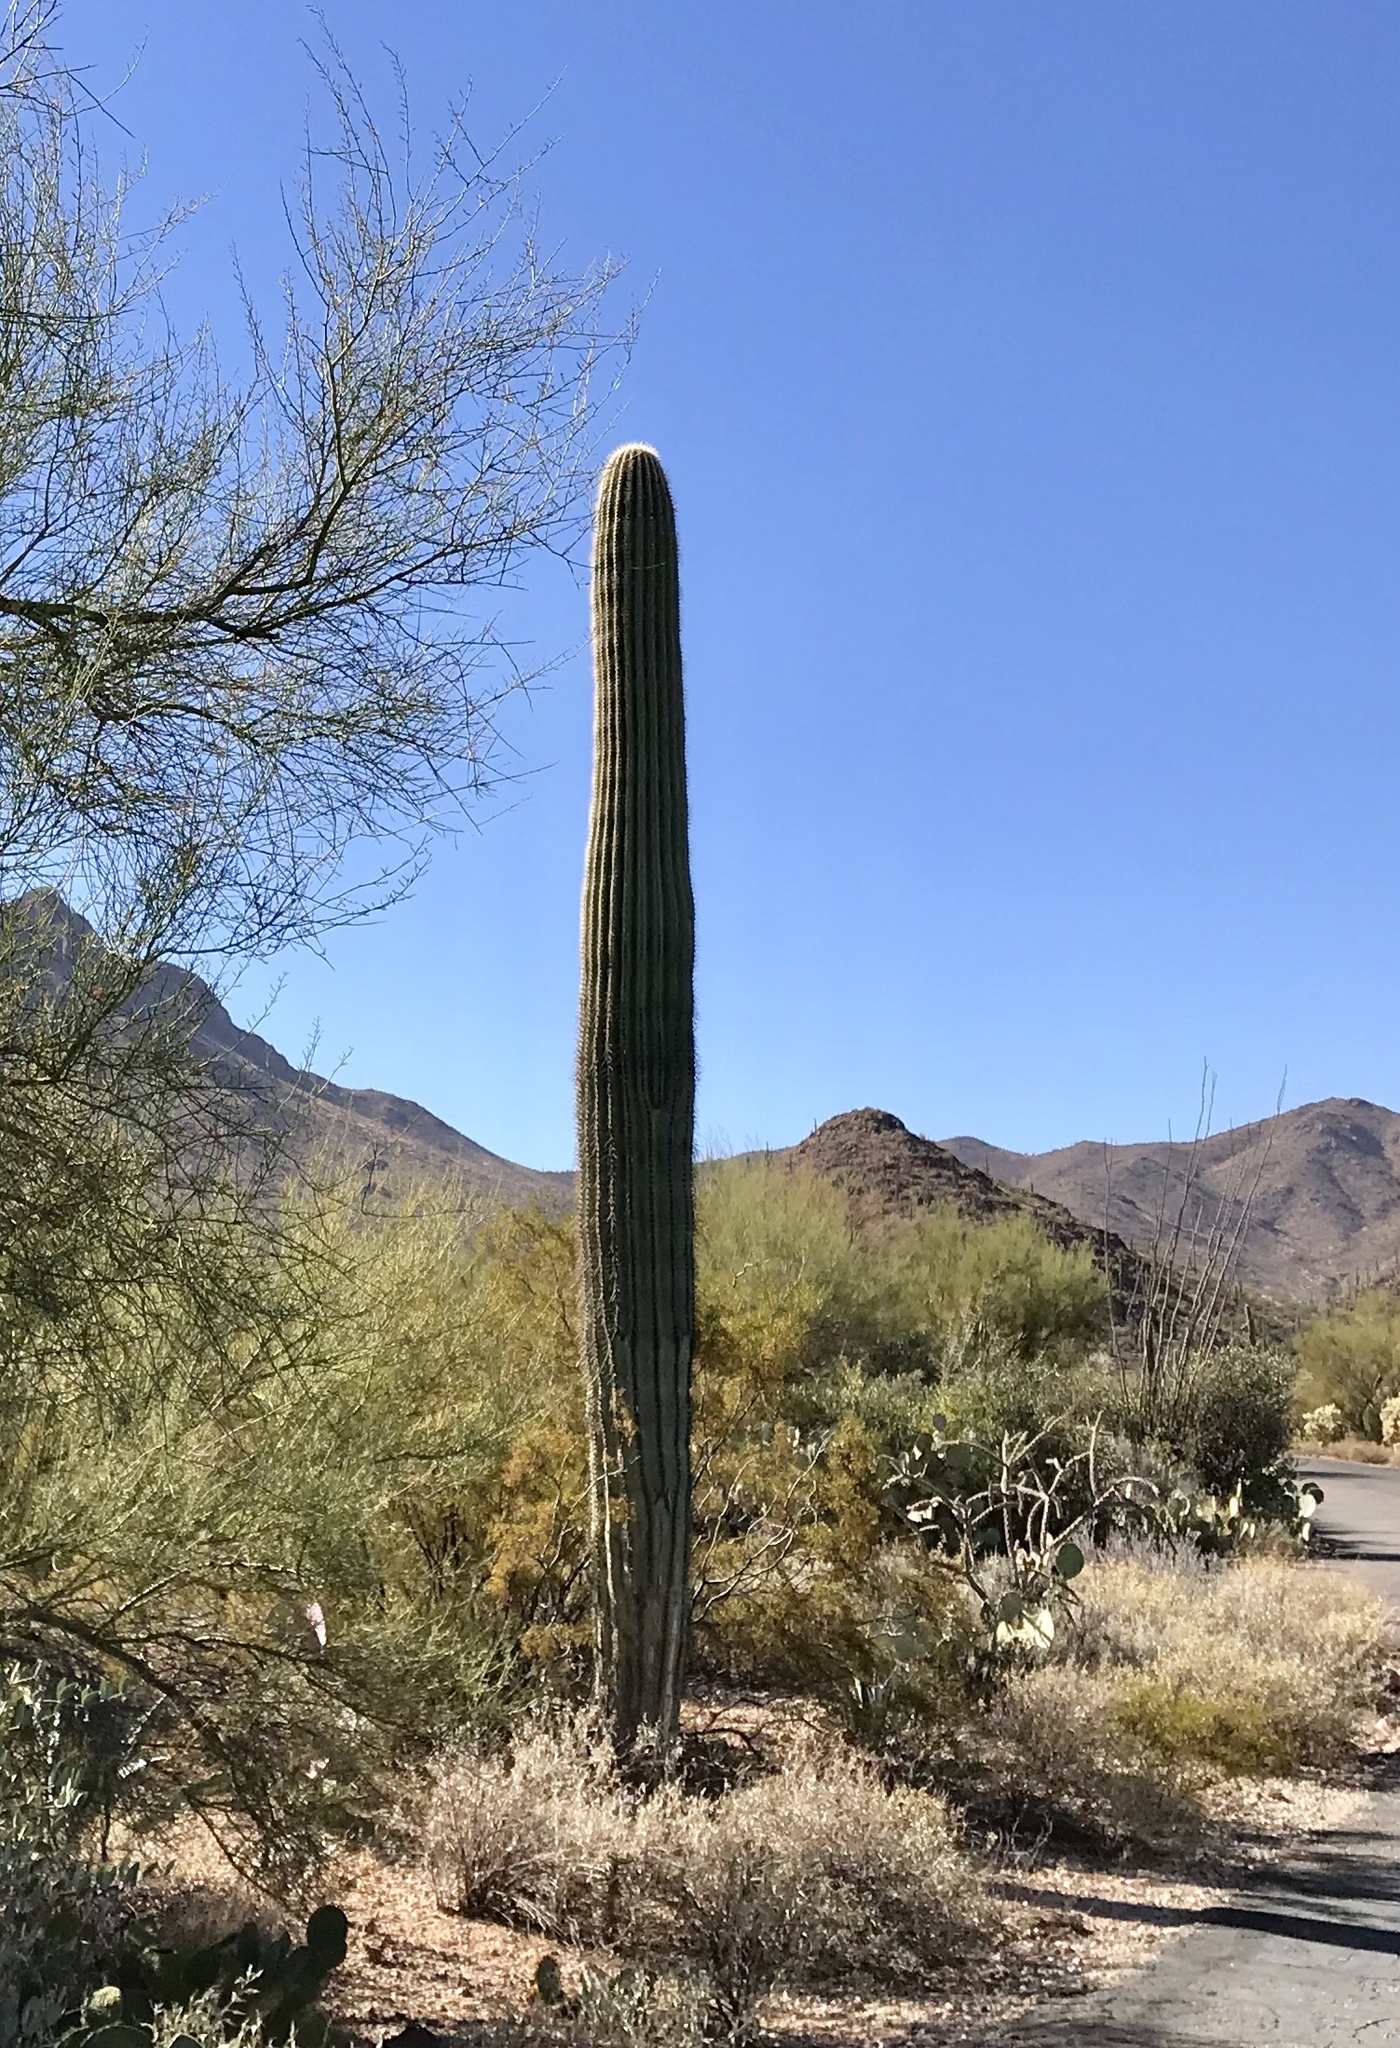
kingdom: Plantae
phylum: Tracheophyta
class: Magnoliopsida
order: Caryophyllales
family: Cactaceae
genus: Carnegiea
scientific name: Carnegiea gigantea
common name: Saguaro
